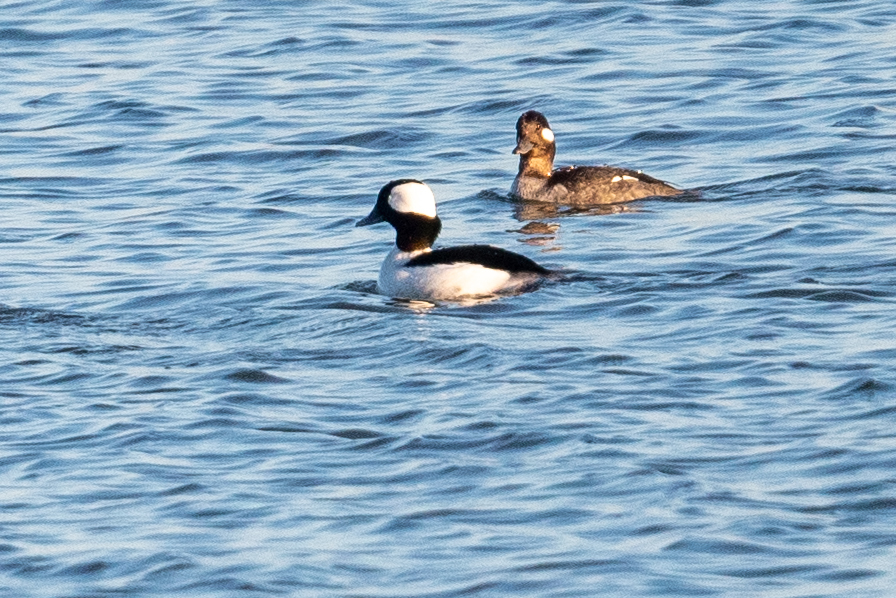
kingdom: Animalia
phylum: Chordata
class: Aves
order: Anseriformes
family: Anatidae
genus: Bucephala
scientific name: Bucephala albeola
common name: Bufflehead
